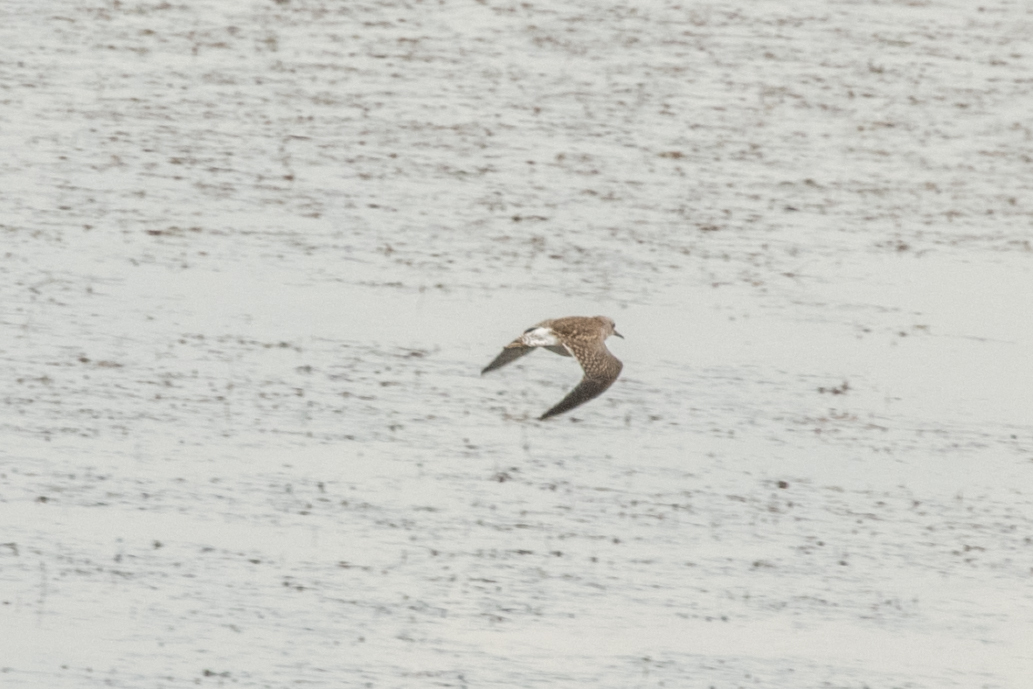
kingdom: Animalia
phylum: Chordata
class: Aves
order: Charadriiformes
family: Scolopacidae
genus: Tringa
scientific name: Tringa glareola
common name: Wood sandpiper
